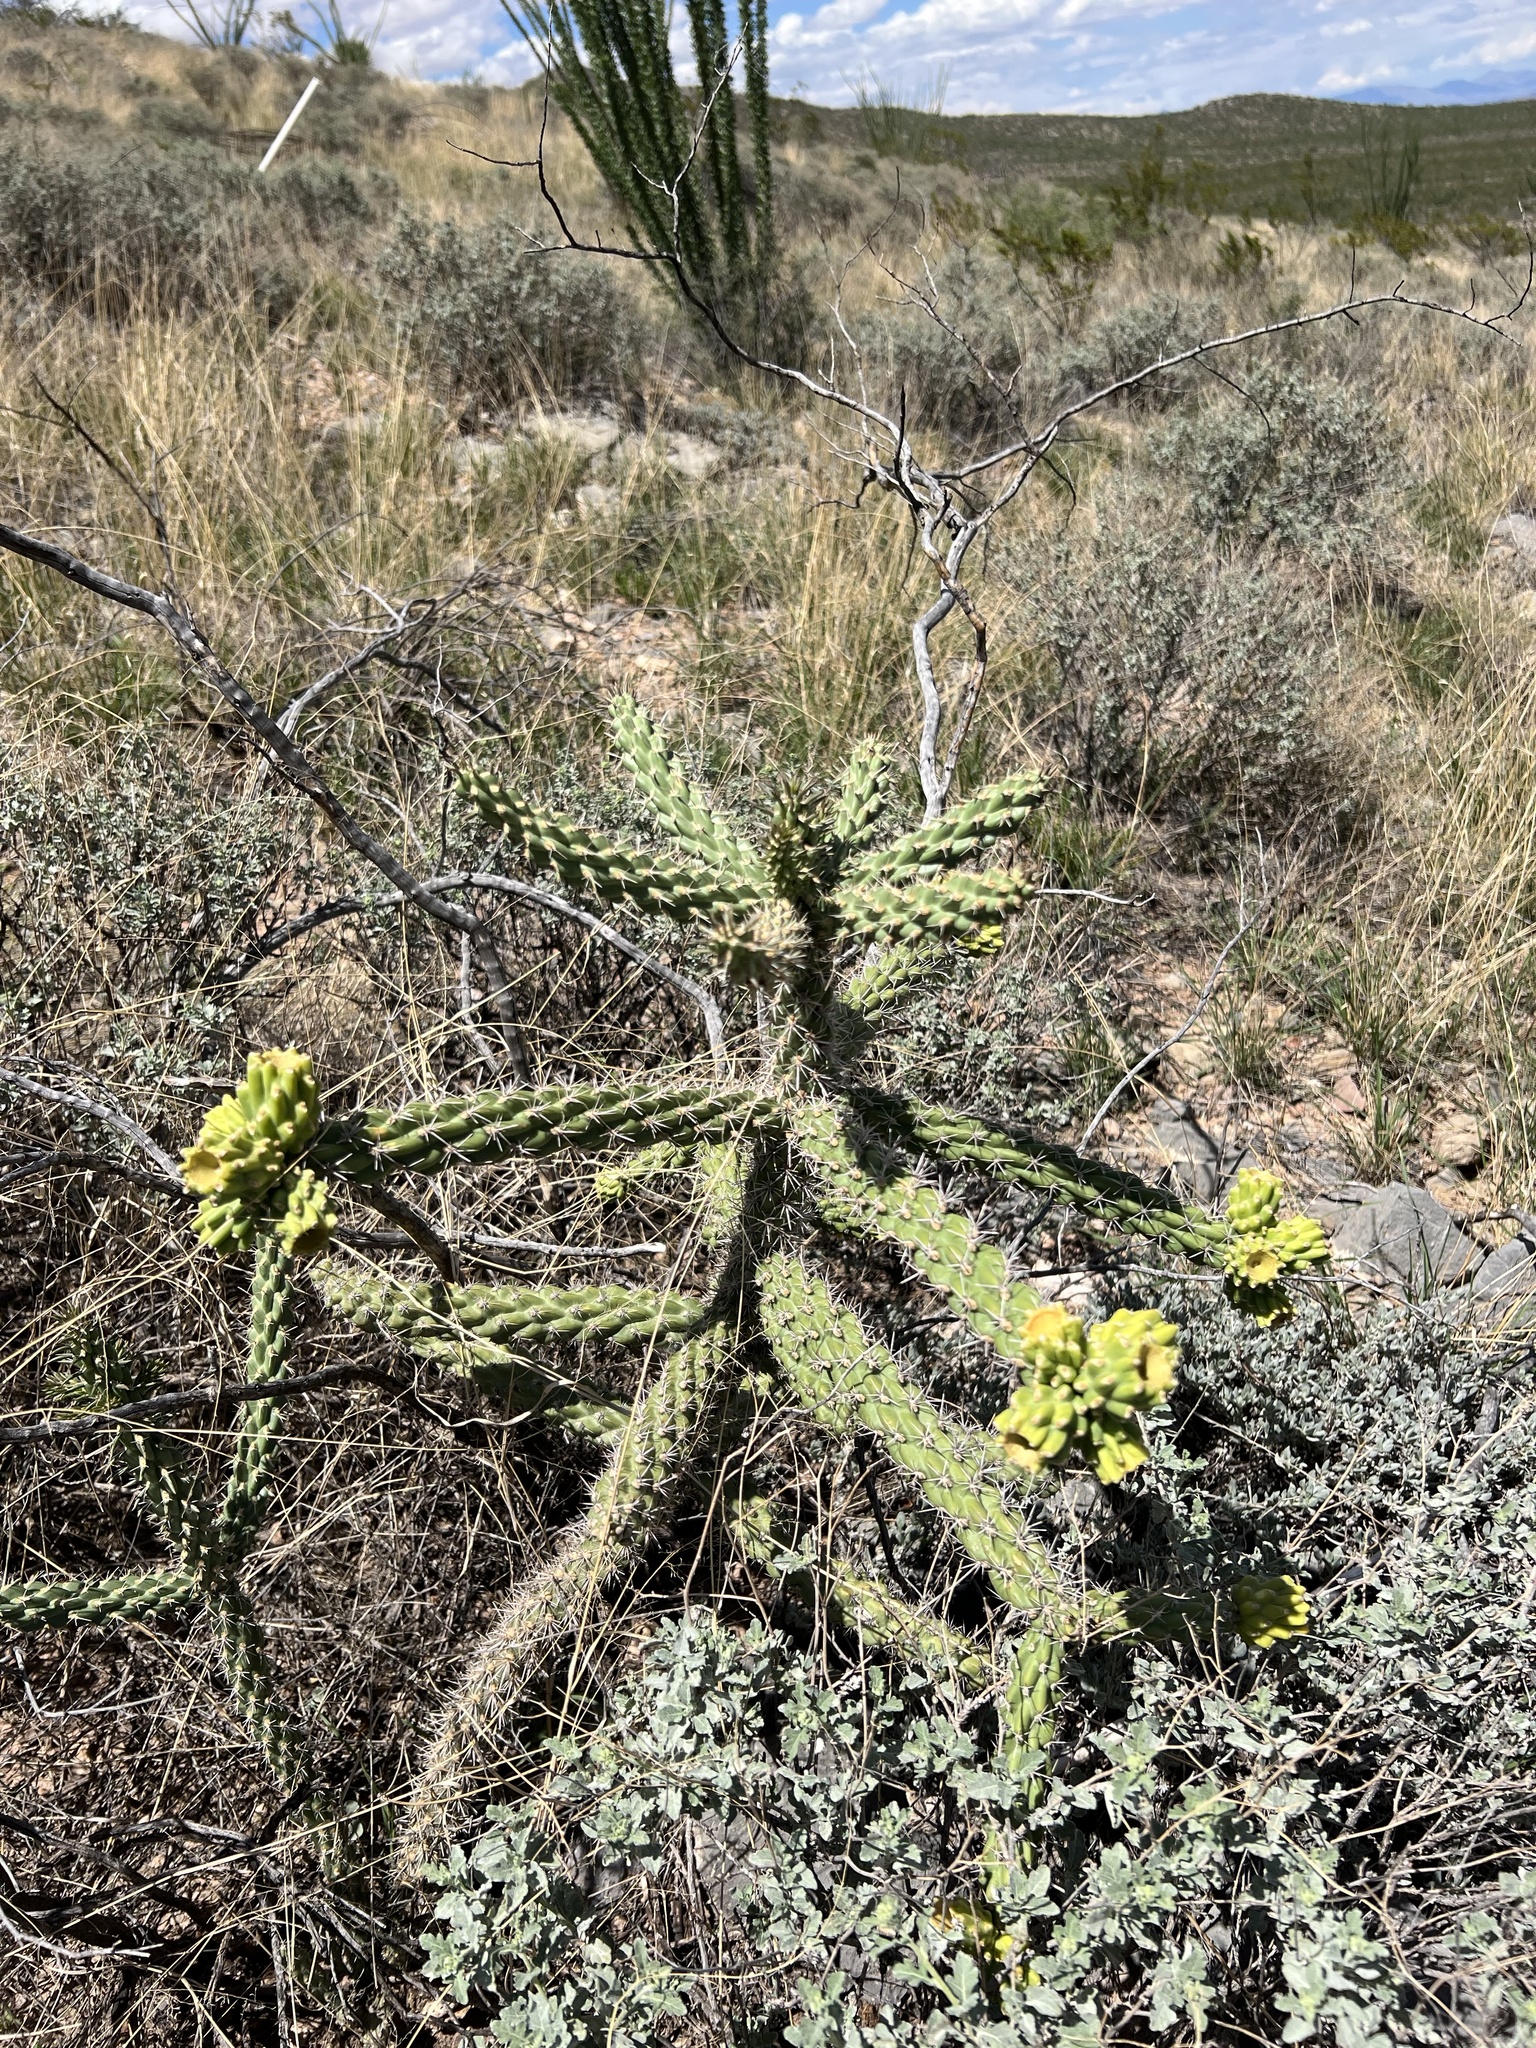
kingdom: Plantae
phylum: Tracheophyta
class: Magnoliopsida
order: Caryophyllales
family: Cactaceae
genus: Cylindropuntia
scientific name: Cylindropuntia imbricata
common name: Candelabrum cactus
